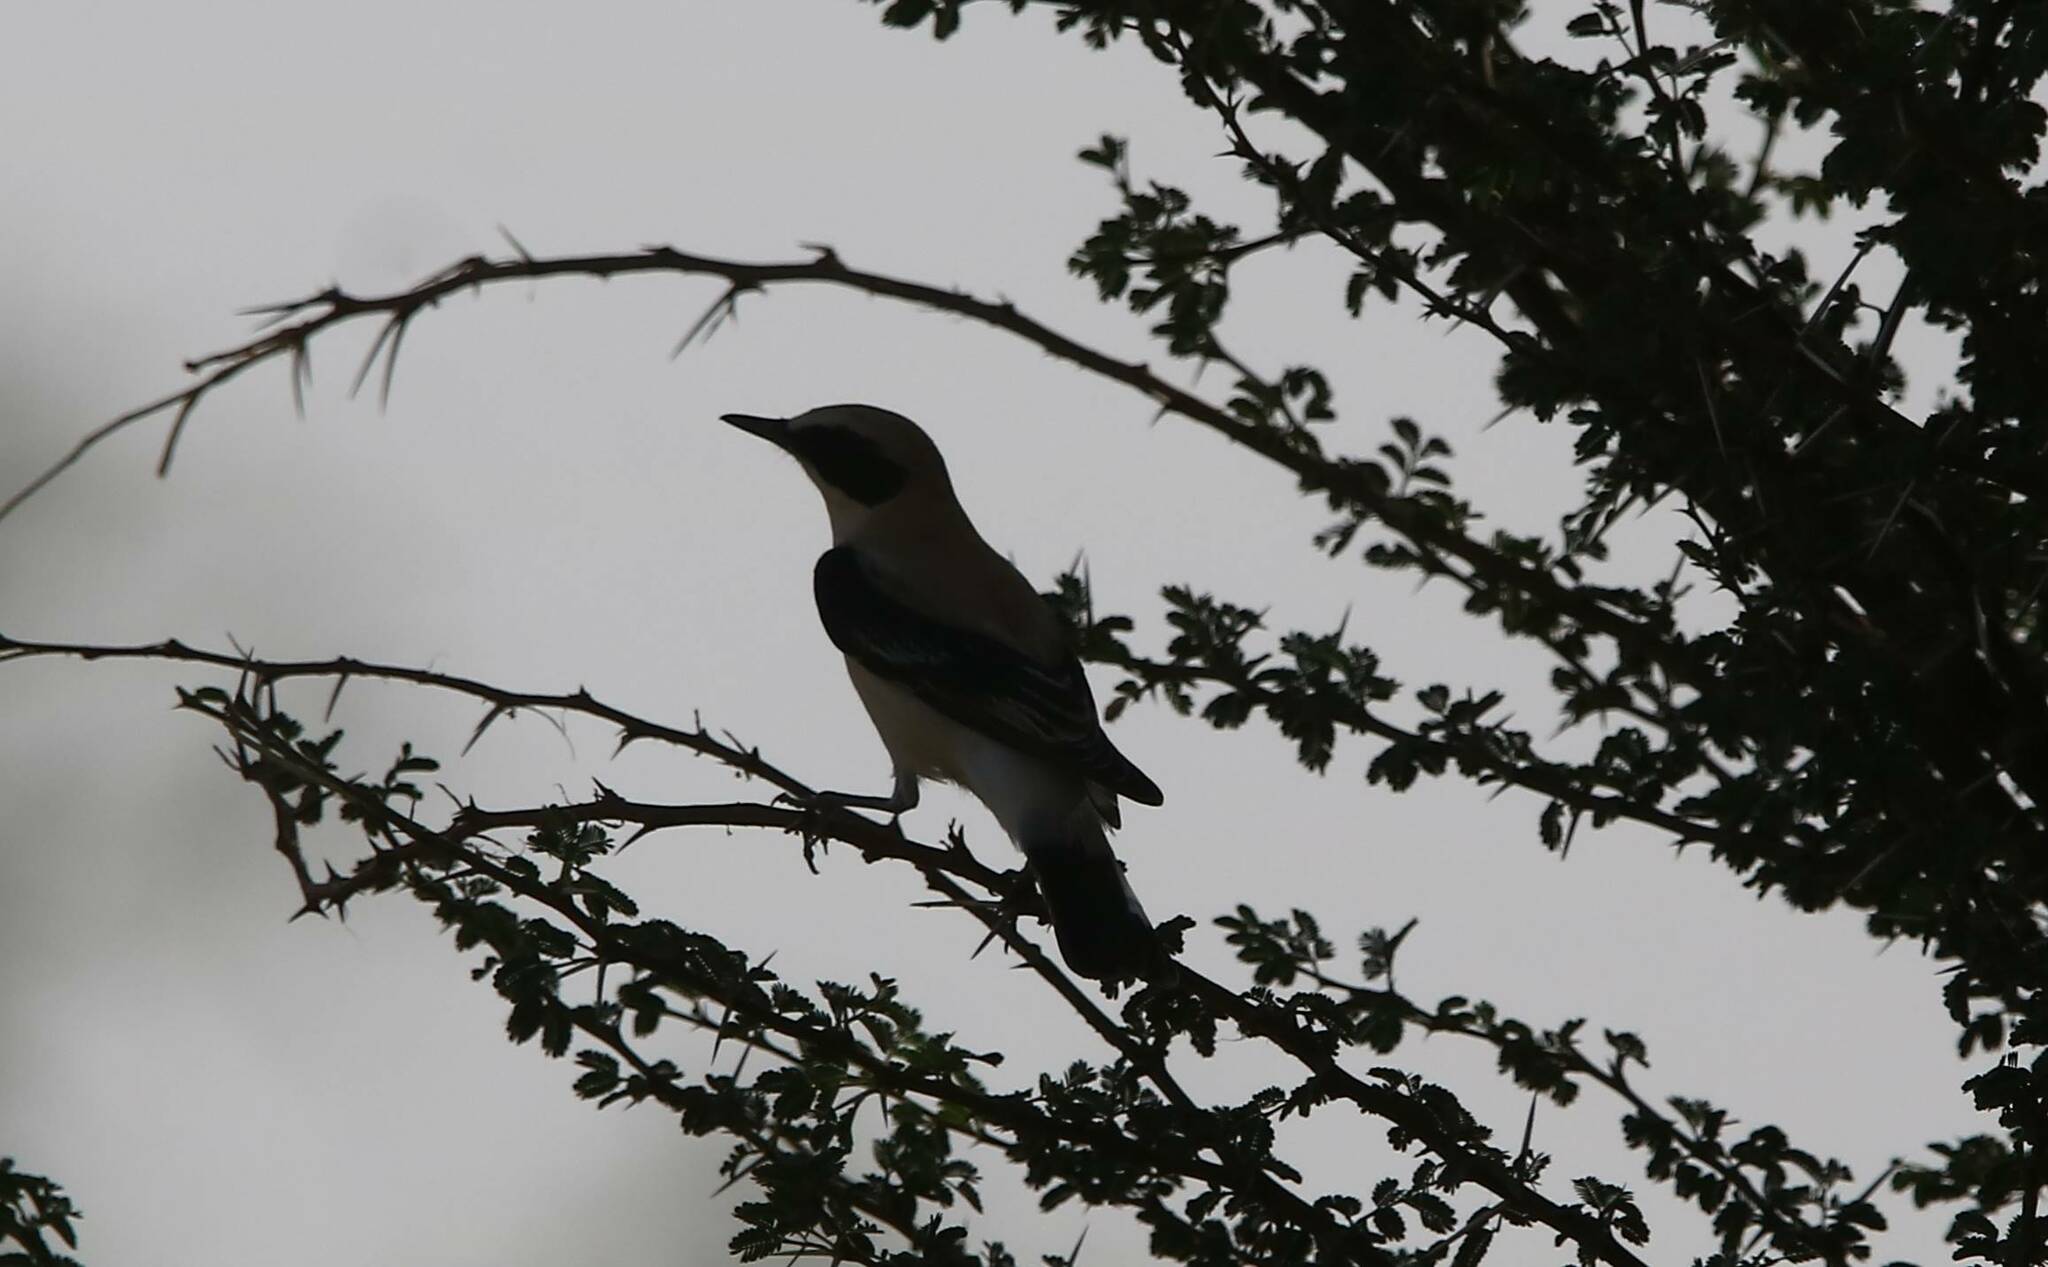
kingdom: Animalia
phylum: Chordata
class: Aves
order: Passeriformes
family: Muscicapidae
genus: Oenanthe
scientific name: Oenanthe hispanica
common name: Black-eared wheatear
